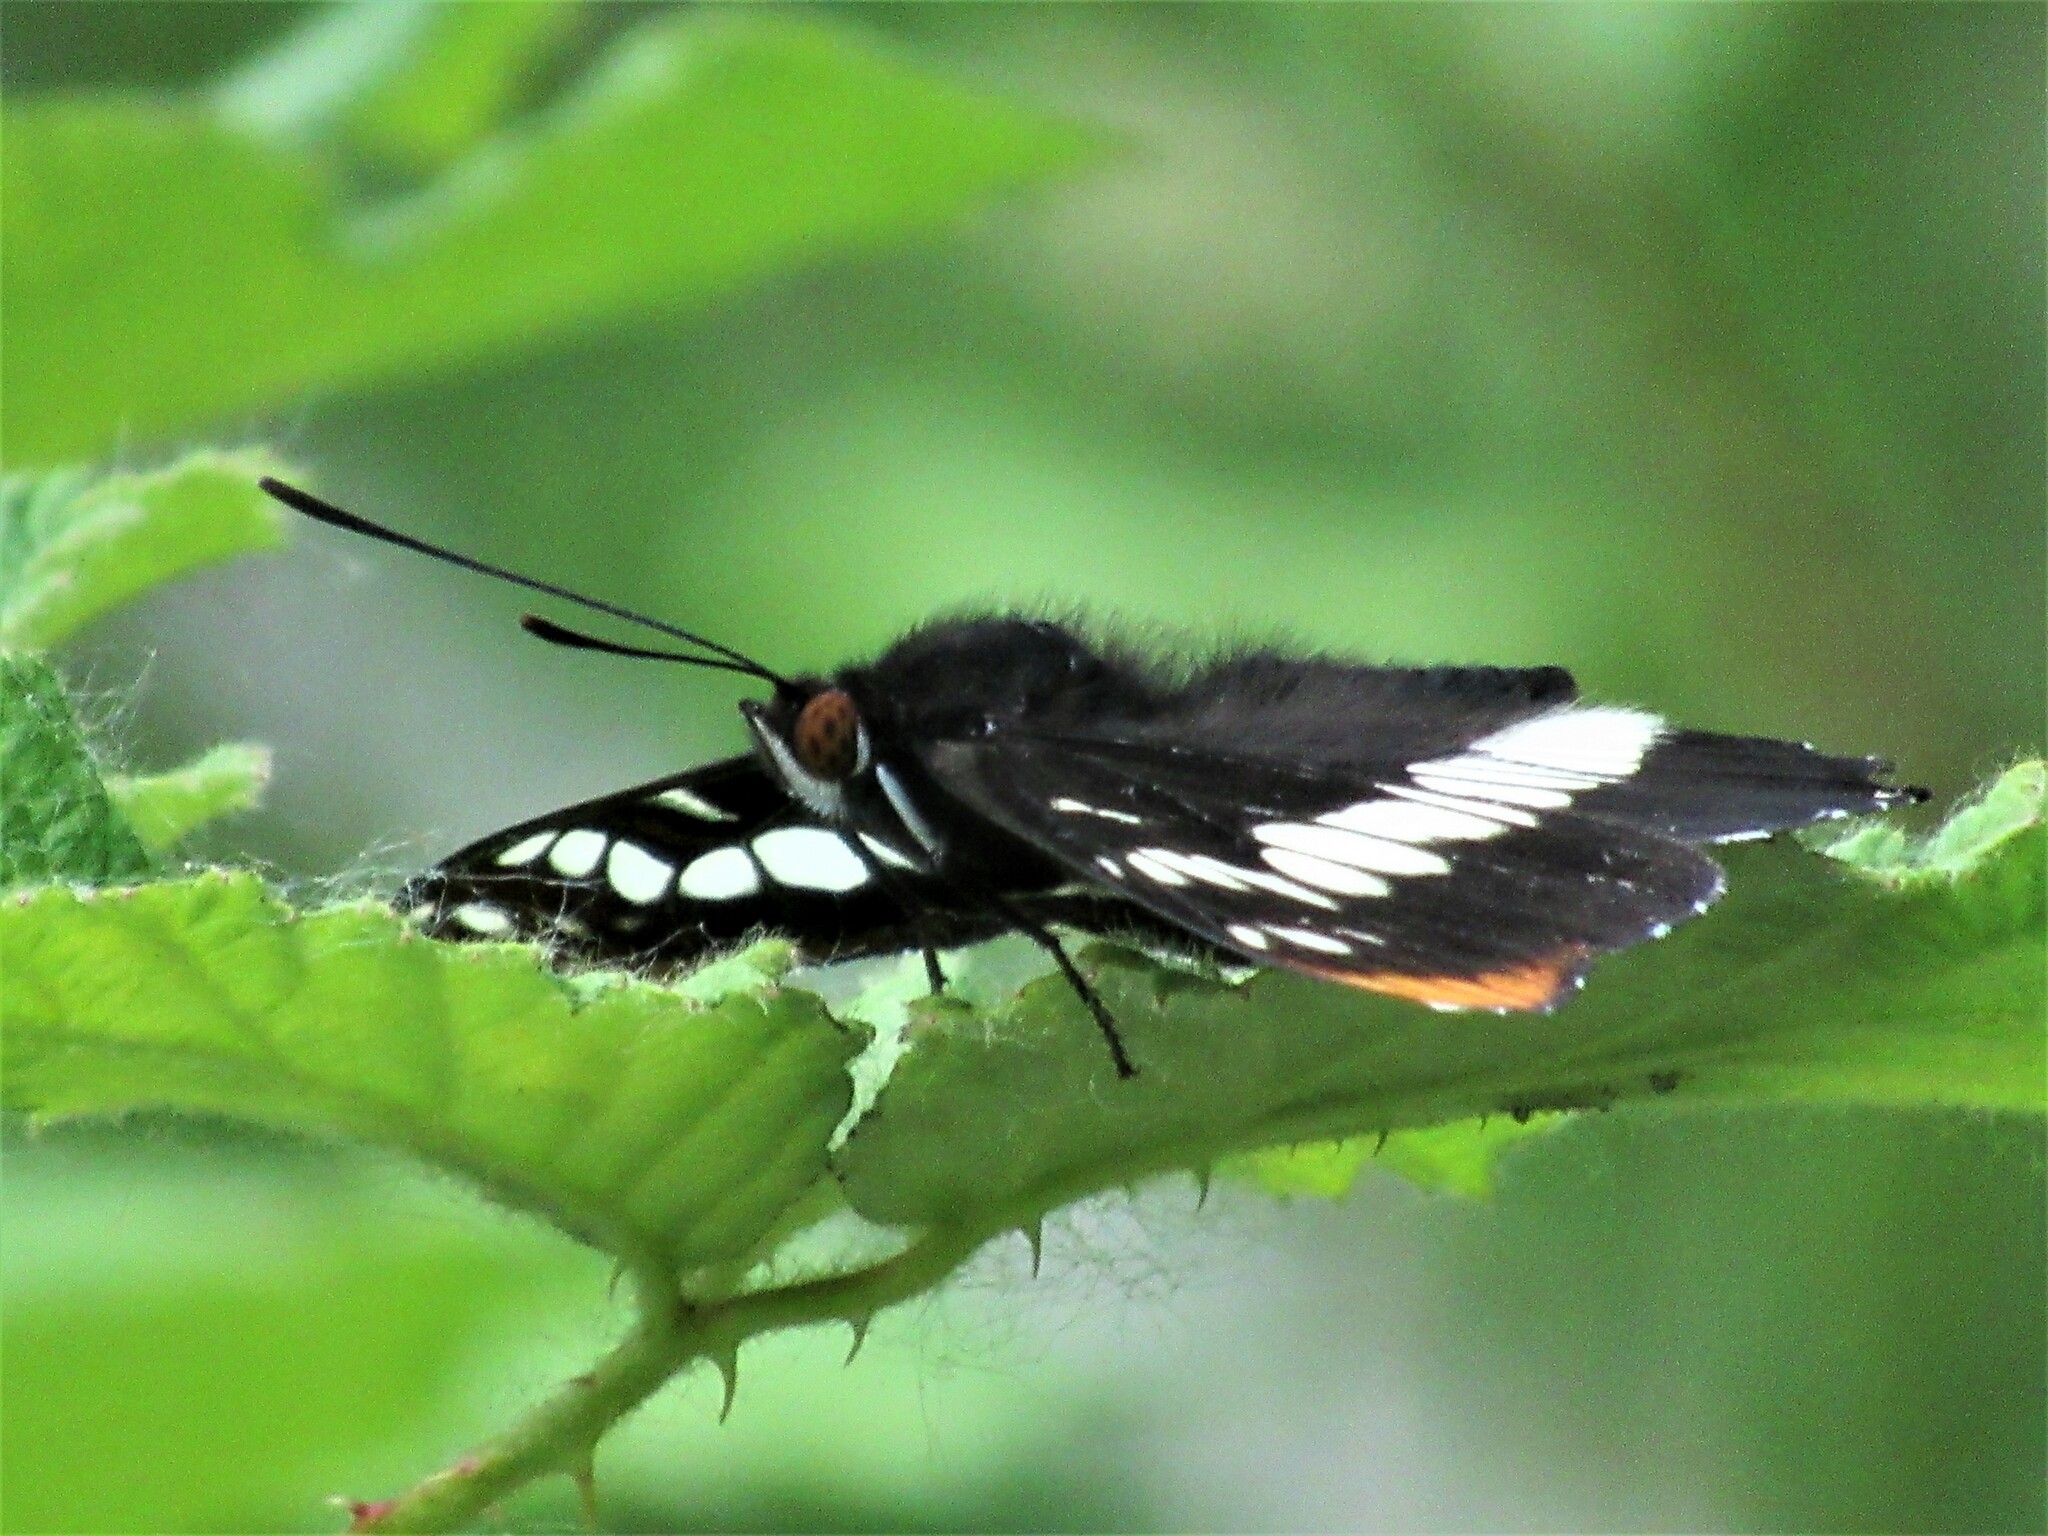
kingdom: Animalia
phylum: Arthropoda
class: Insecta
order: Lepidoptera
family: Nymphalidae
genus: Limenitis
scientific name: Limenitis lorquini
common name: Lorquin's admiral
